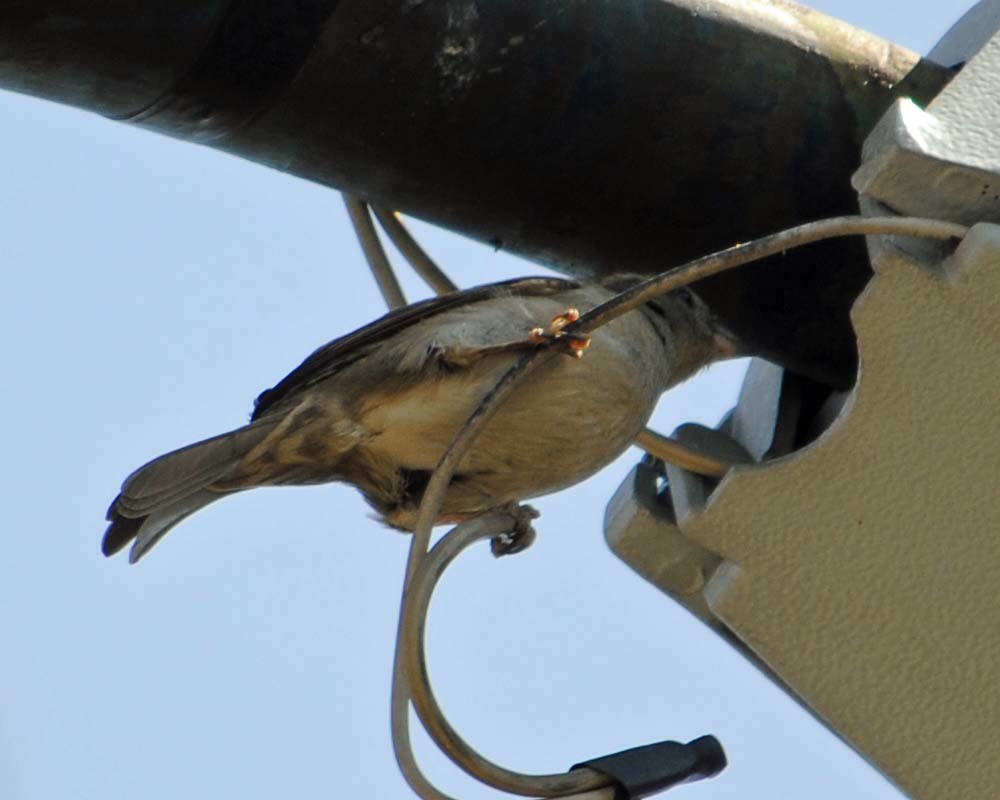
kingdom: Animalia
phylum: Chordata
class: Aves
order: Passeriformes
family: Passeridae
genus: Passer
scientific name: Passer domesticus
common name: House sparrow
